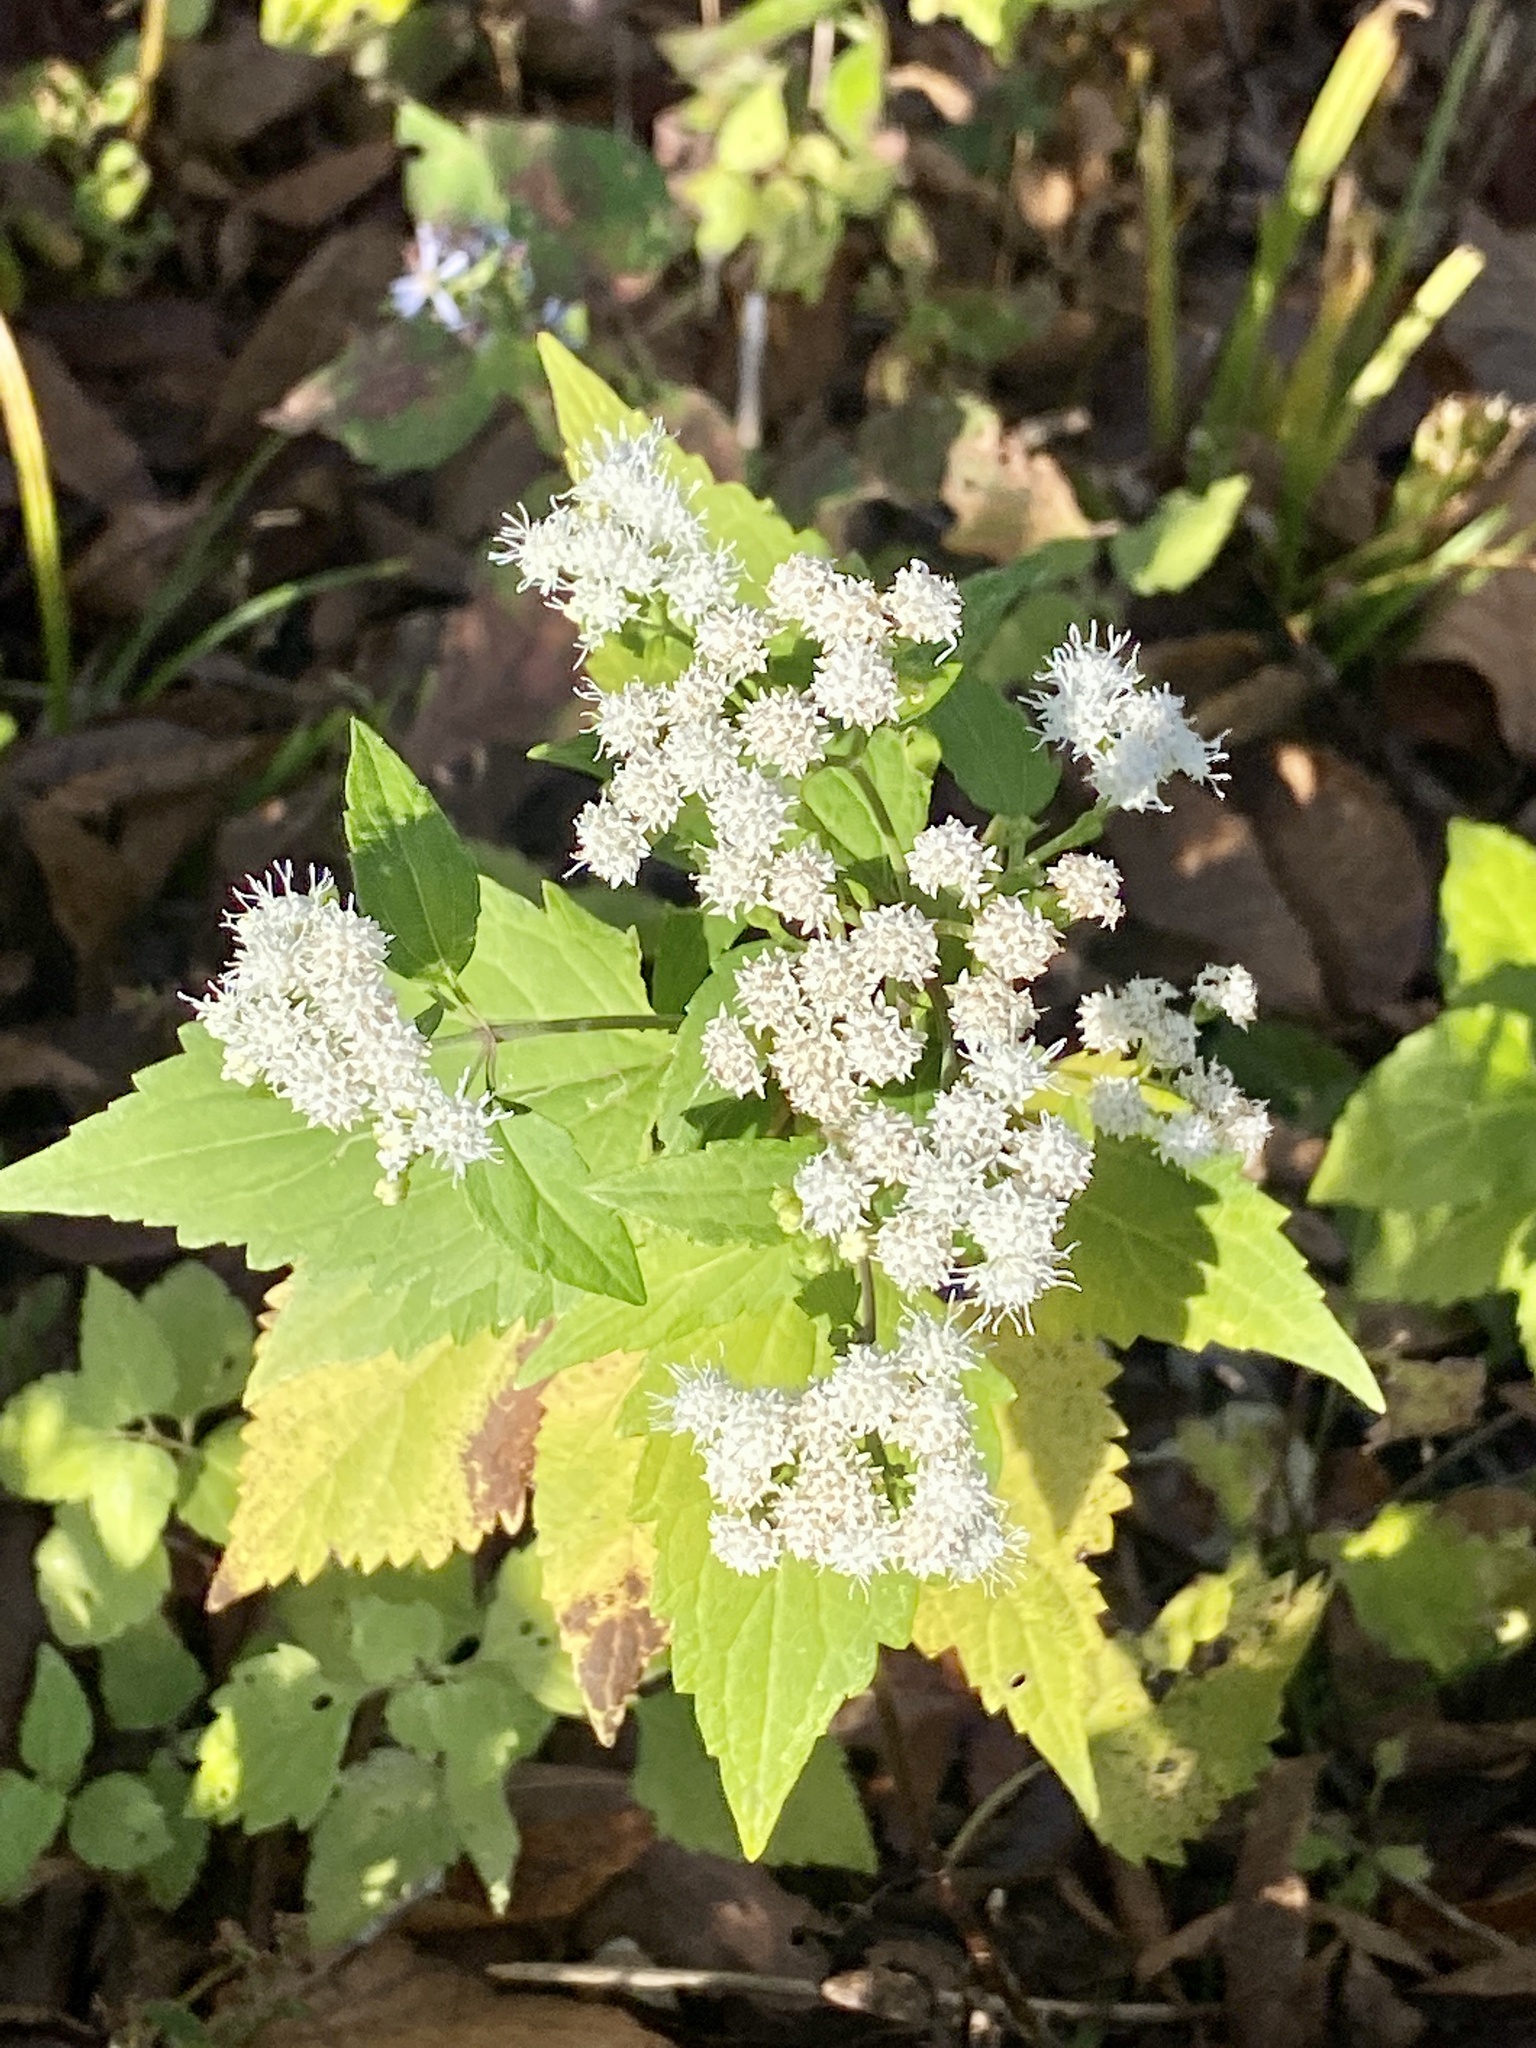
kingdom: Plantae
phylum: Tracheophyta
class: Magnoliopsida
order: Asterales
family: Asteraceae
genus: Ageratina
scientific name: Ageratina altissima
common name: White snakeroot
